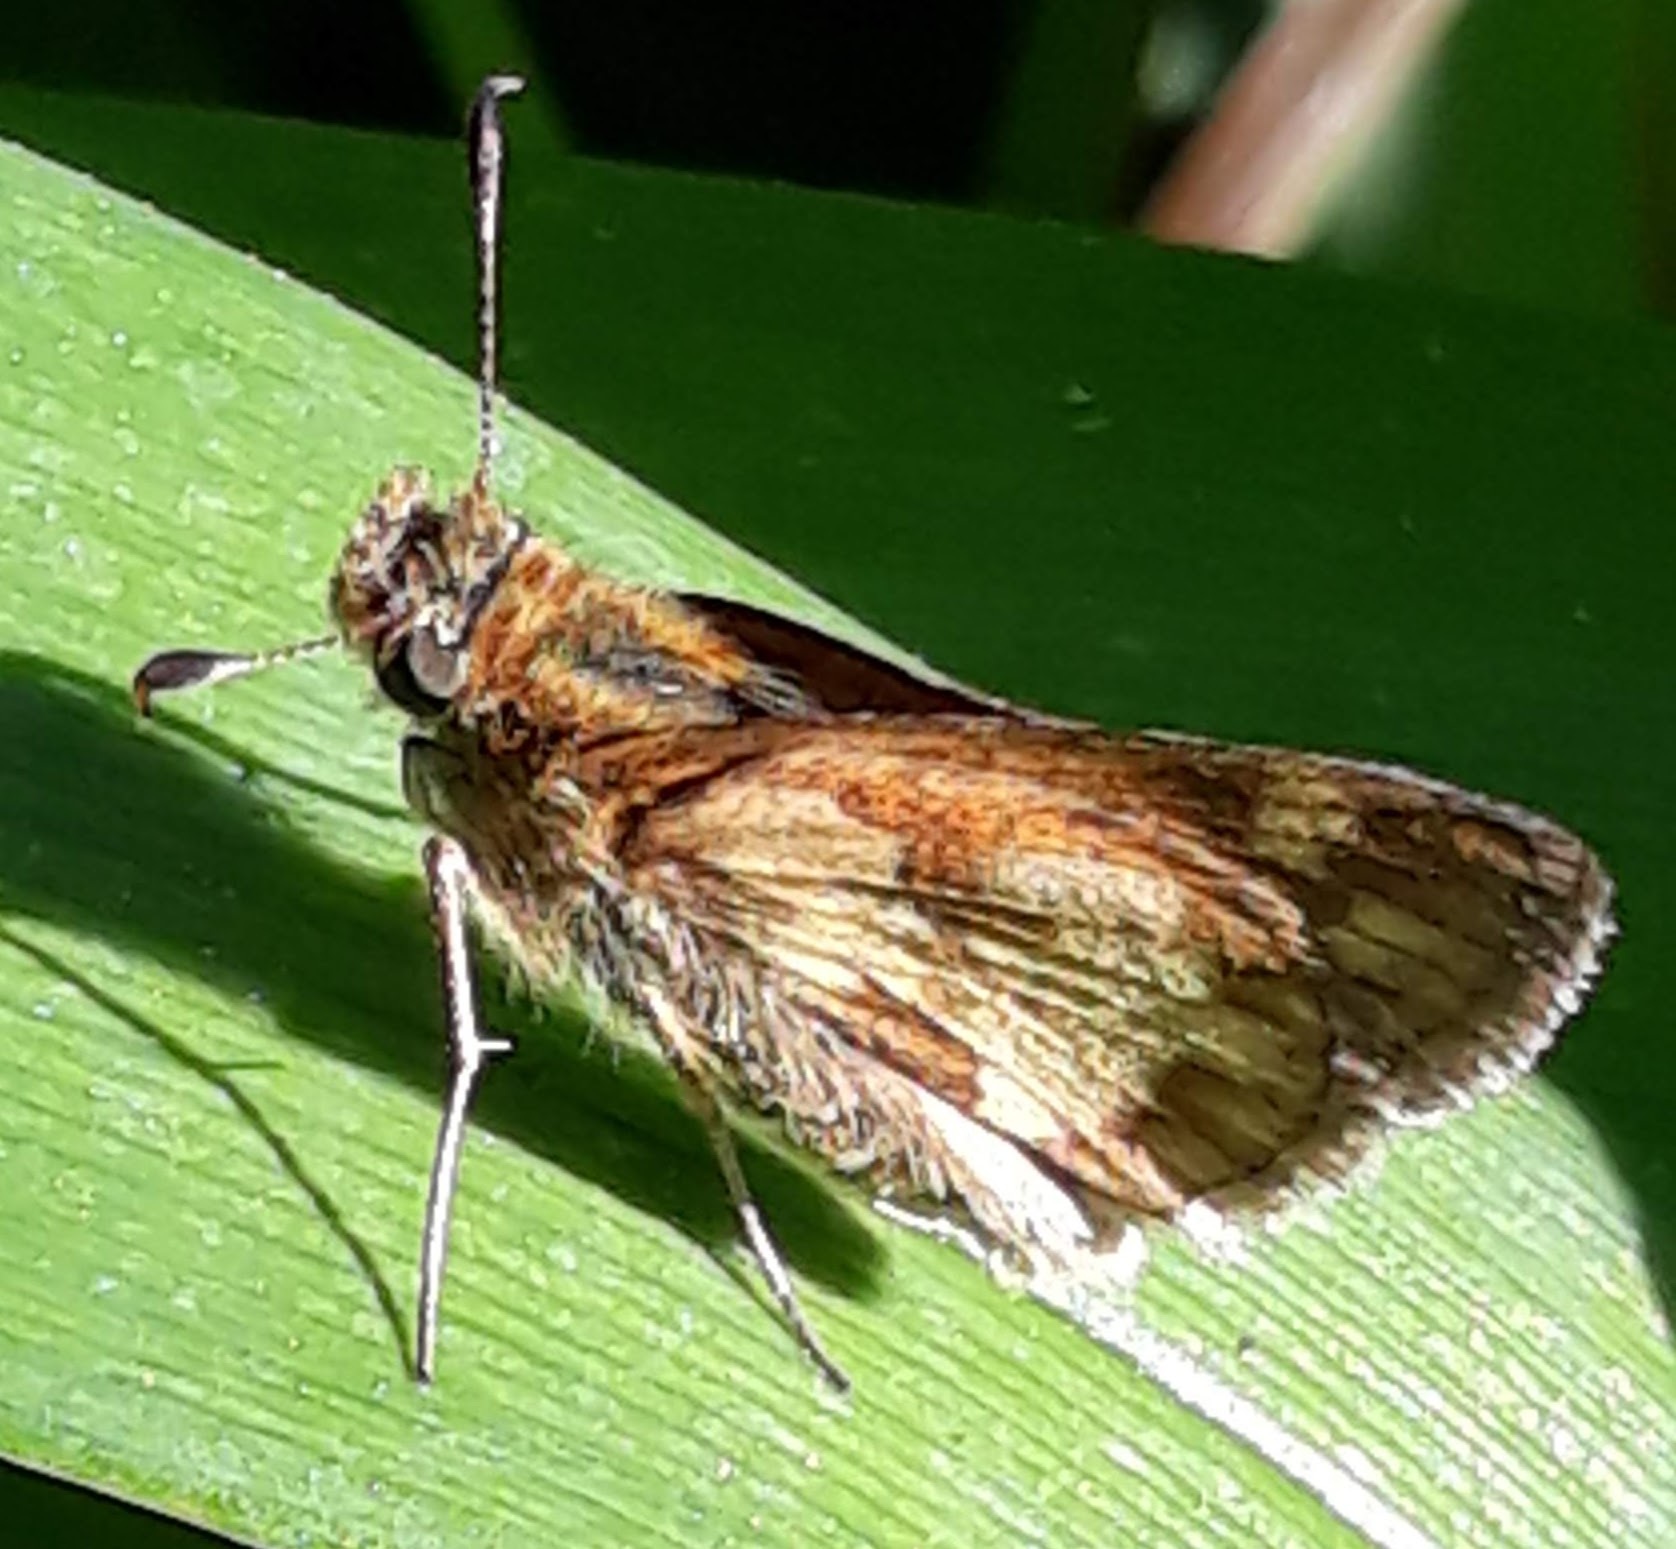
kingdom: Animalia
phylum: Arthropoda
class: Insecta
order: Lepidoptera
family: Hesperiidae
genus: Polites
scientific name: Polites coras
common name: Peck's skipper
